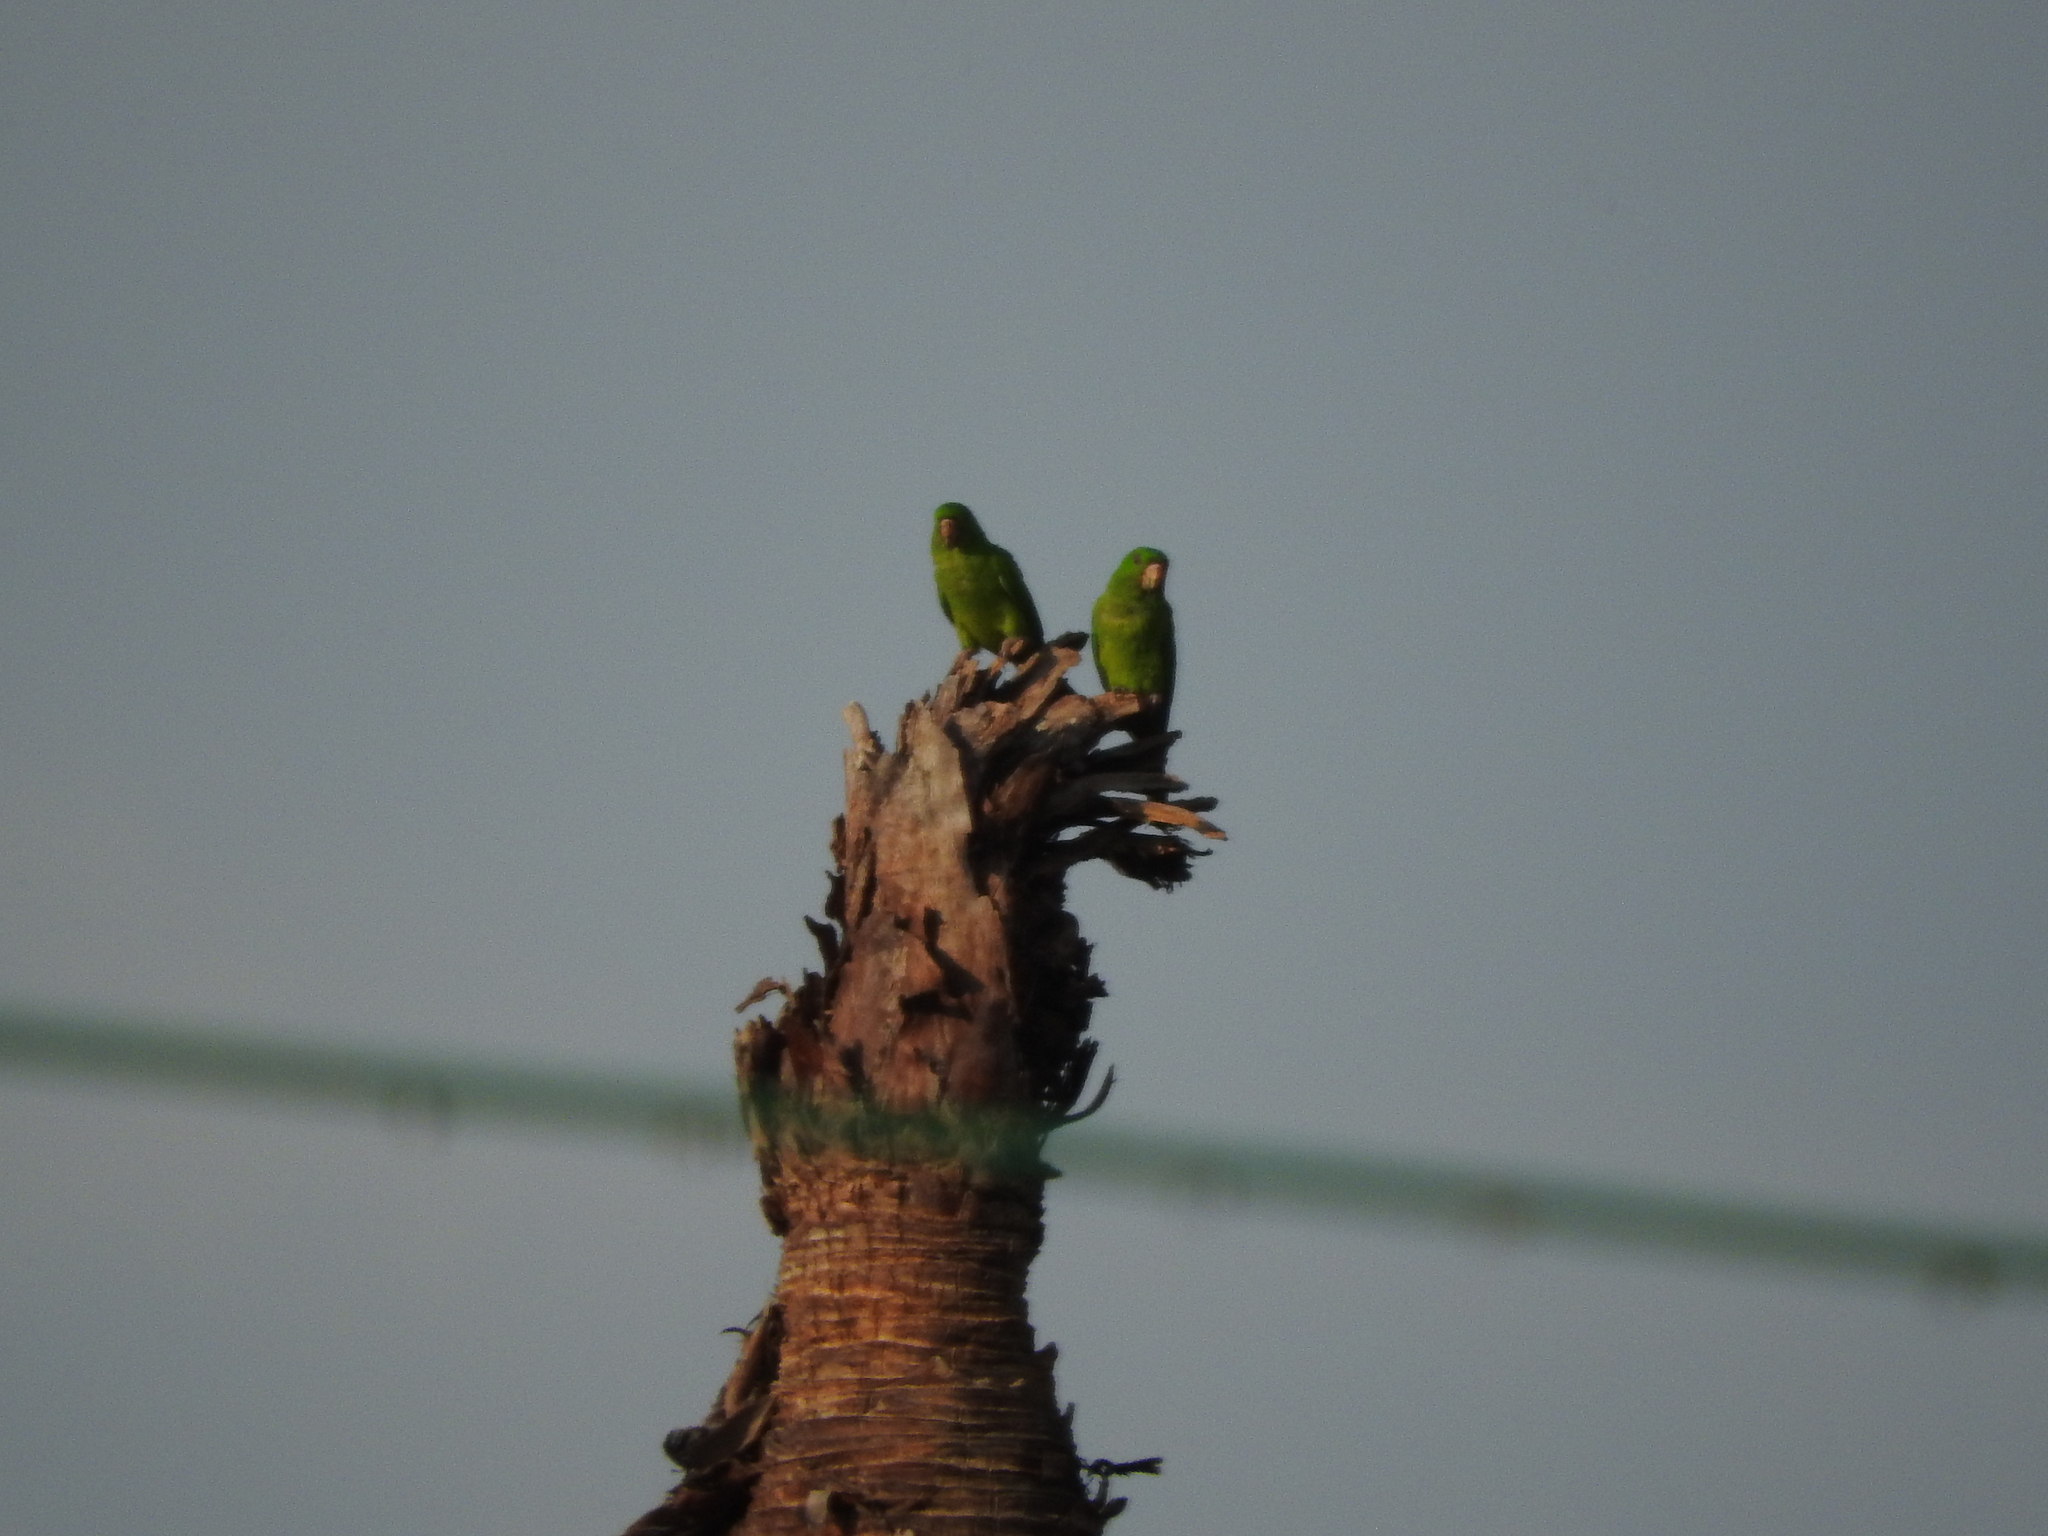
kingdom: Animalia
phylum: Chordata
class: Aves
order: Psittaciformes
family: Psittacidae
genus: Aratinga
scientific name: Aratinga holochlora
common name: Green parakeet
